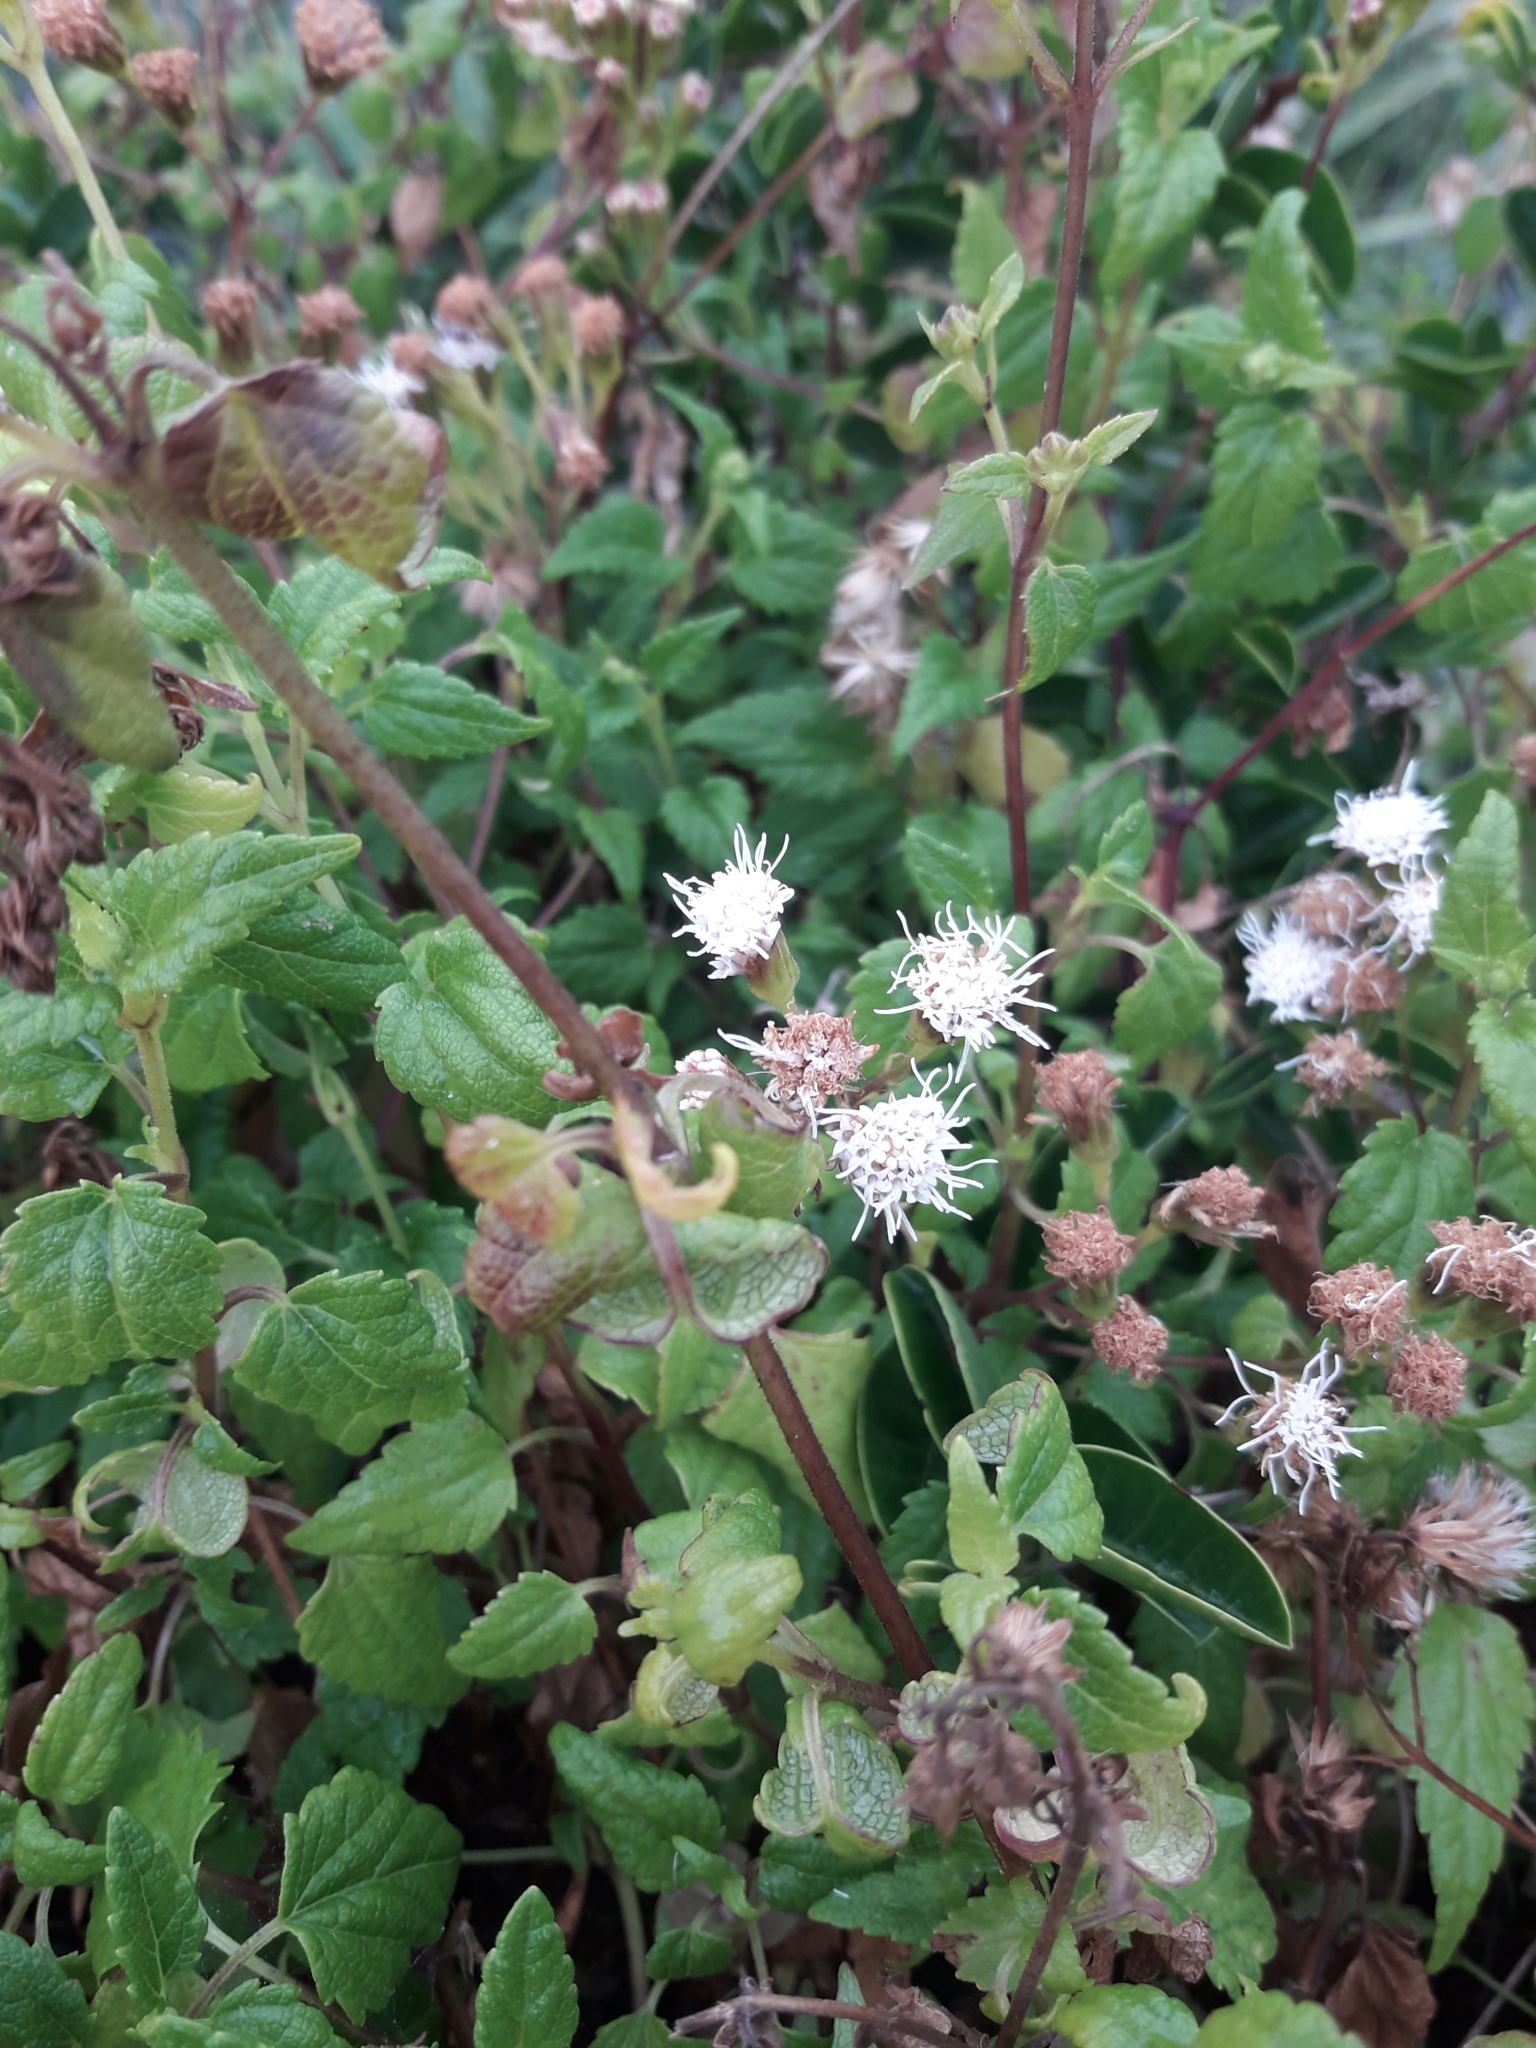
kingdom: Plantae
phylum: Tracheophyta
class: Magnoliopsida
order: Asterales
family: Asteraceae
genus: Ageratina
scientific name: Ageratina glechonophylla
